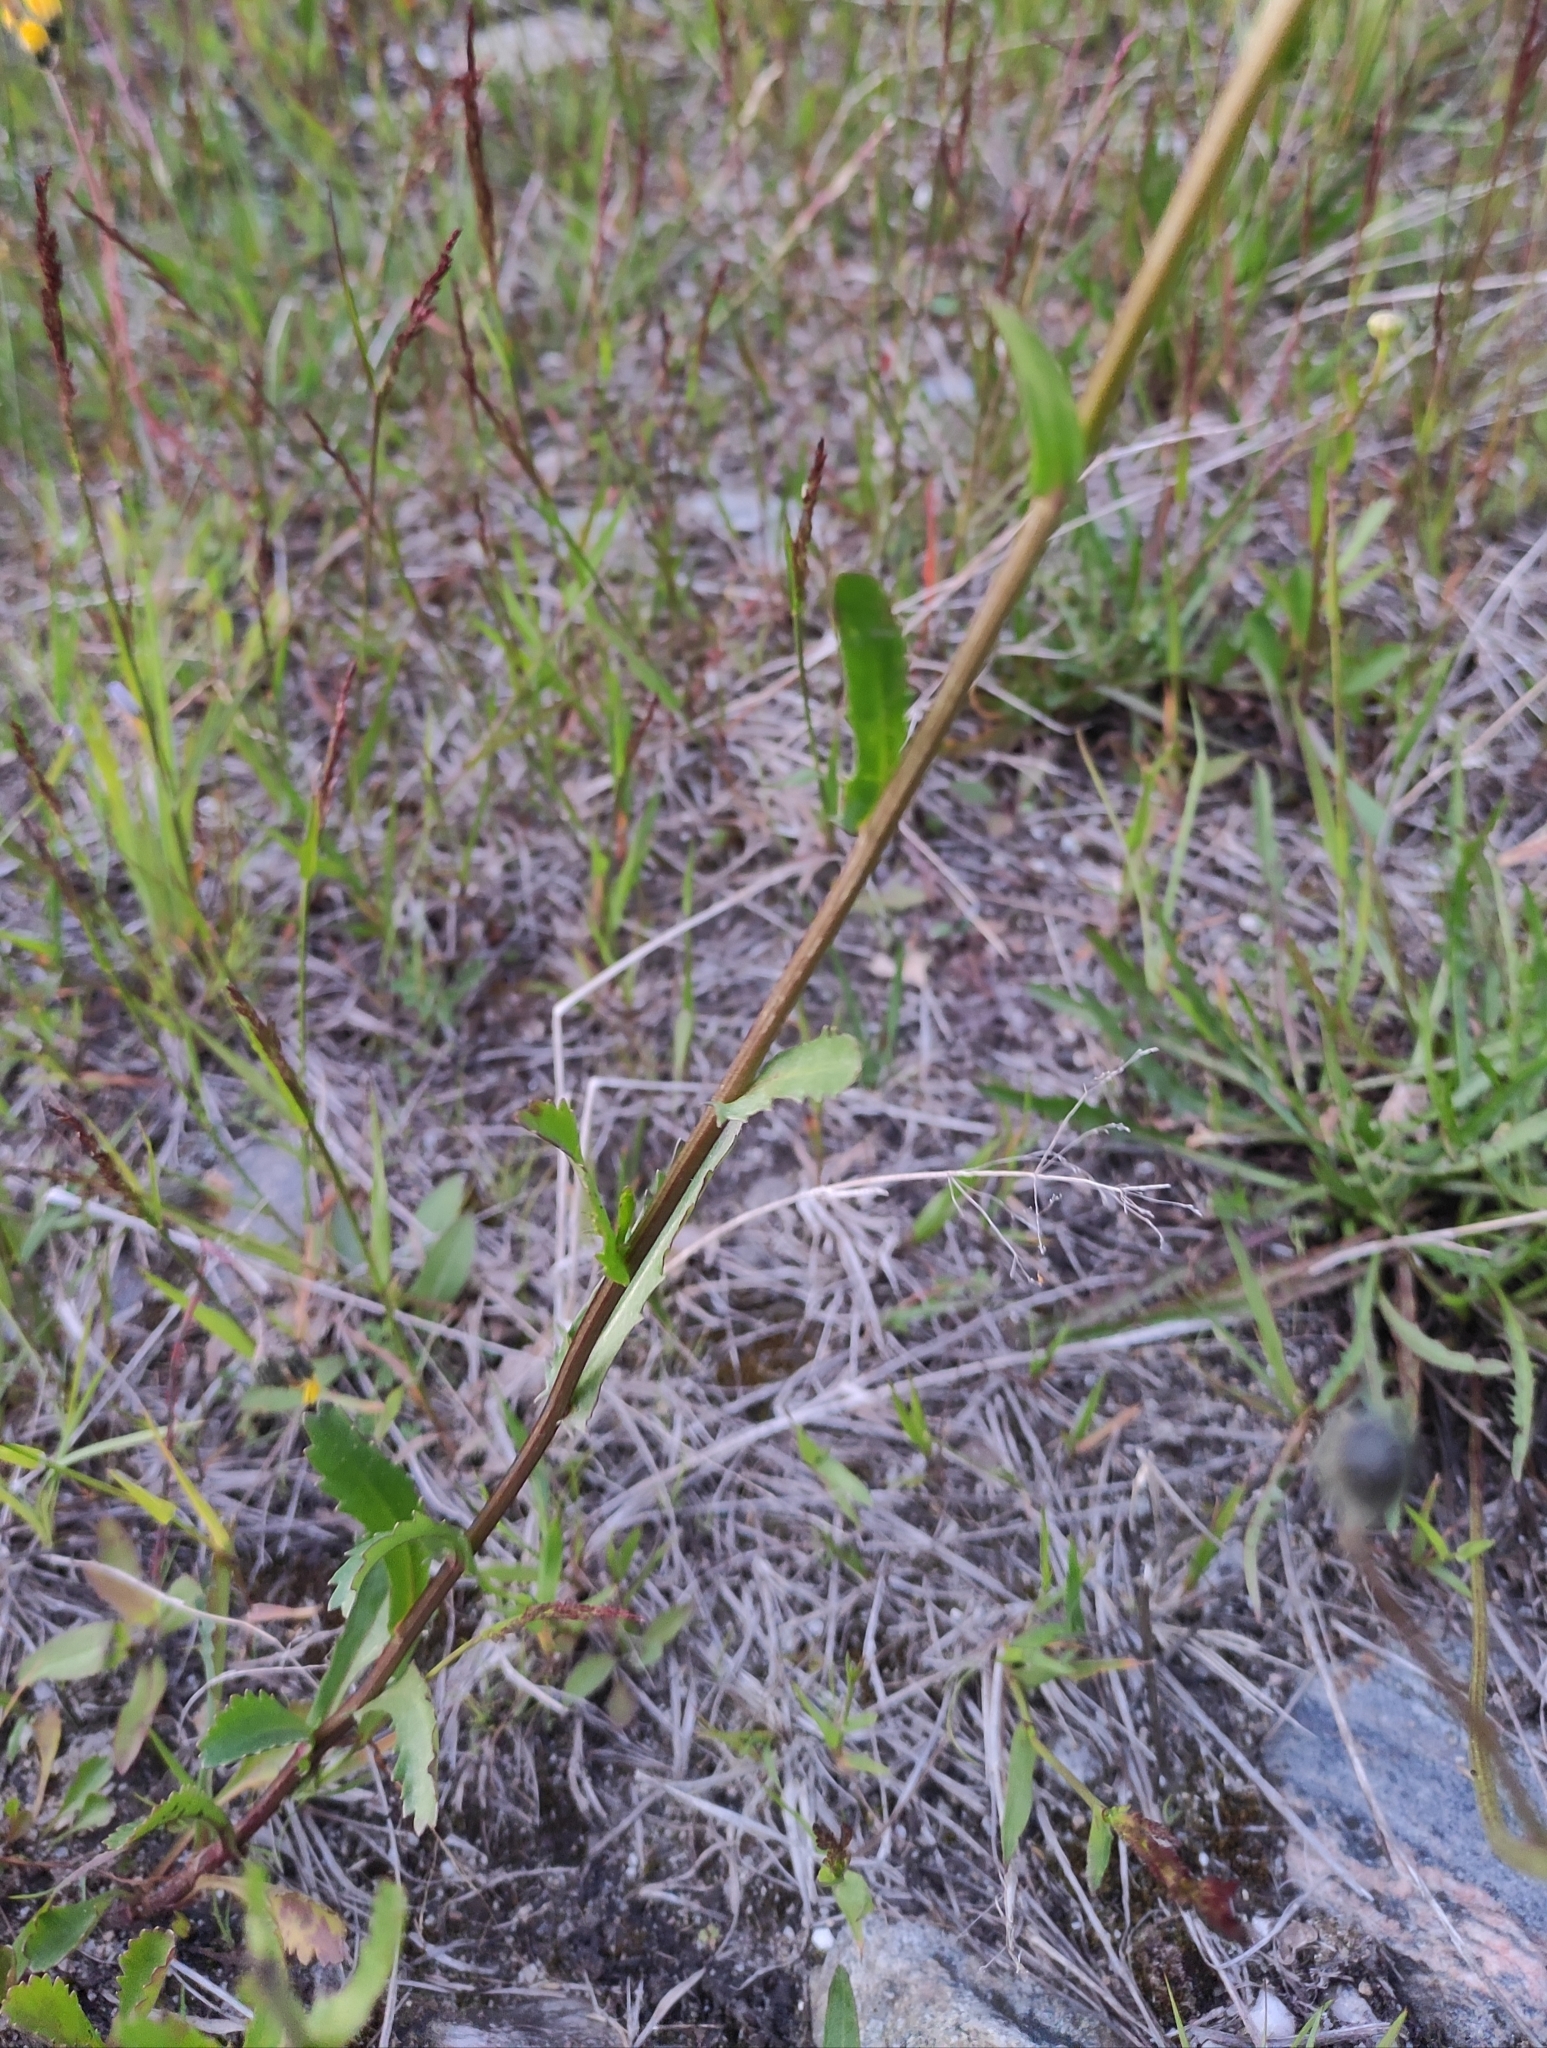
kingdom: Plantae
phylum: Tracheophyta
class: Magnoliopsida
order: Asterales
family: Asteraceae
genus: Leucanthemum
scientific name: Leucanthemum ircutianum
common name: Daisy
